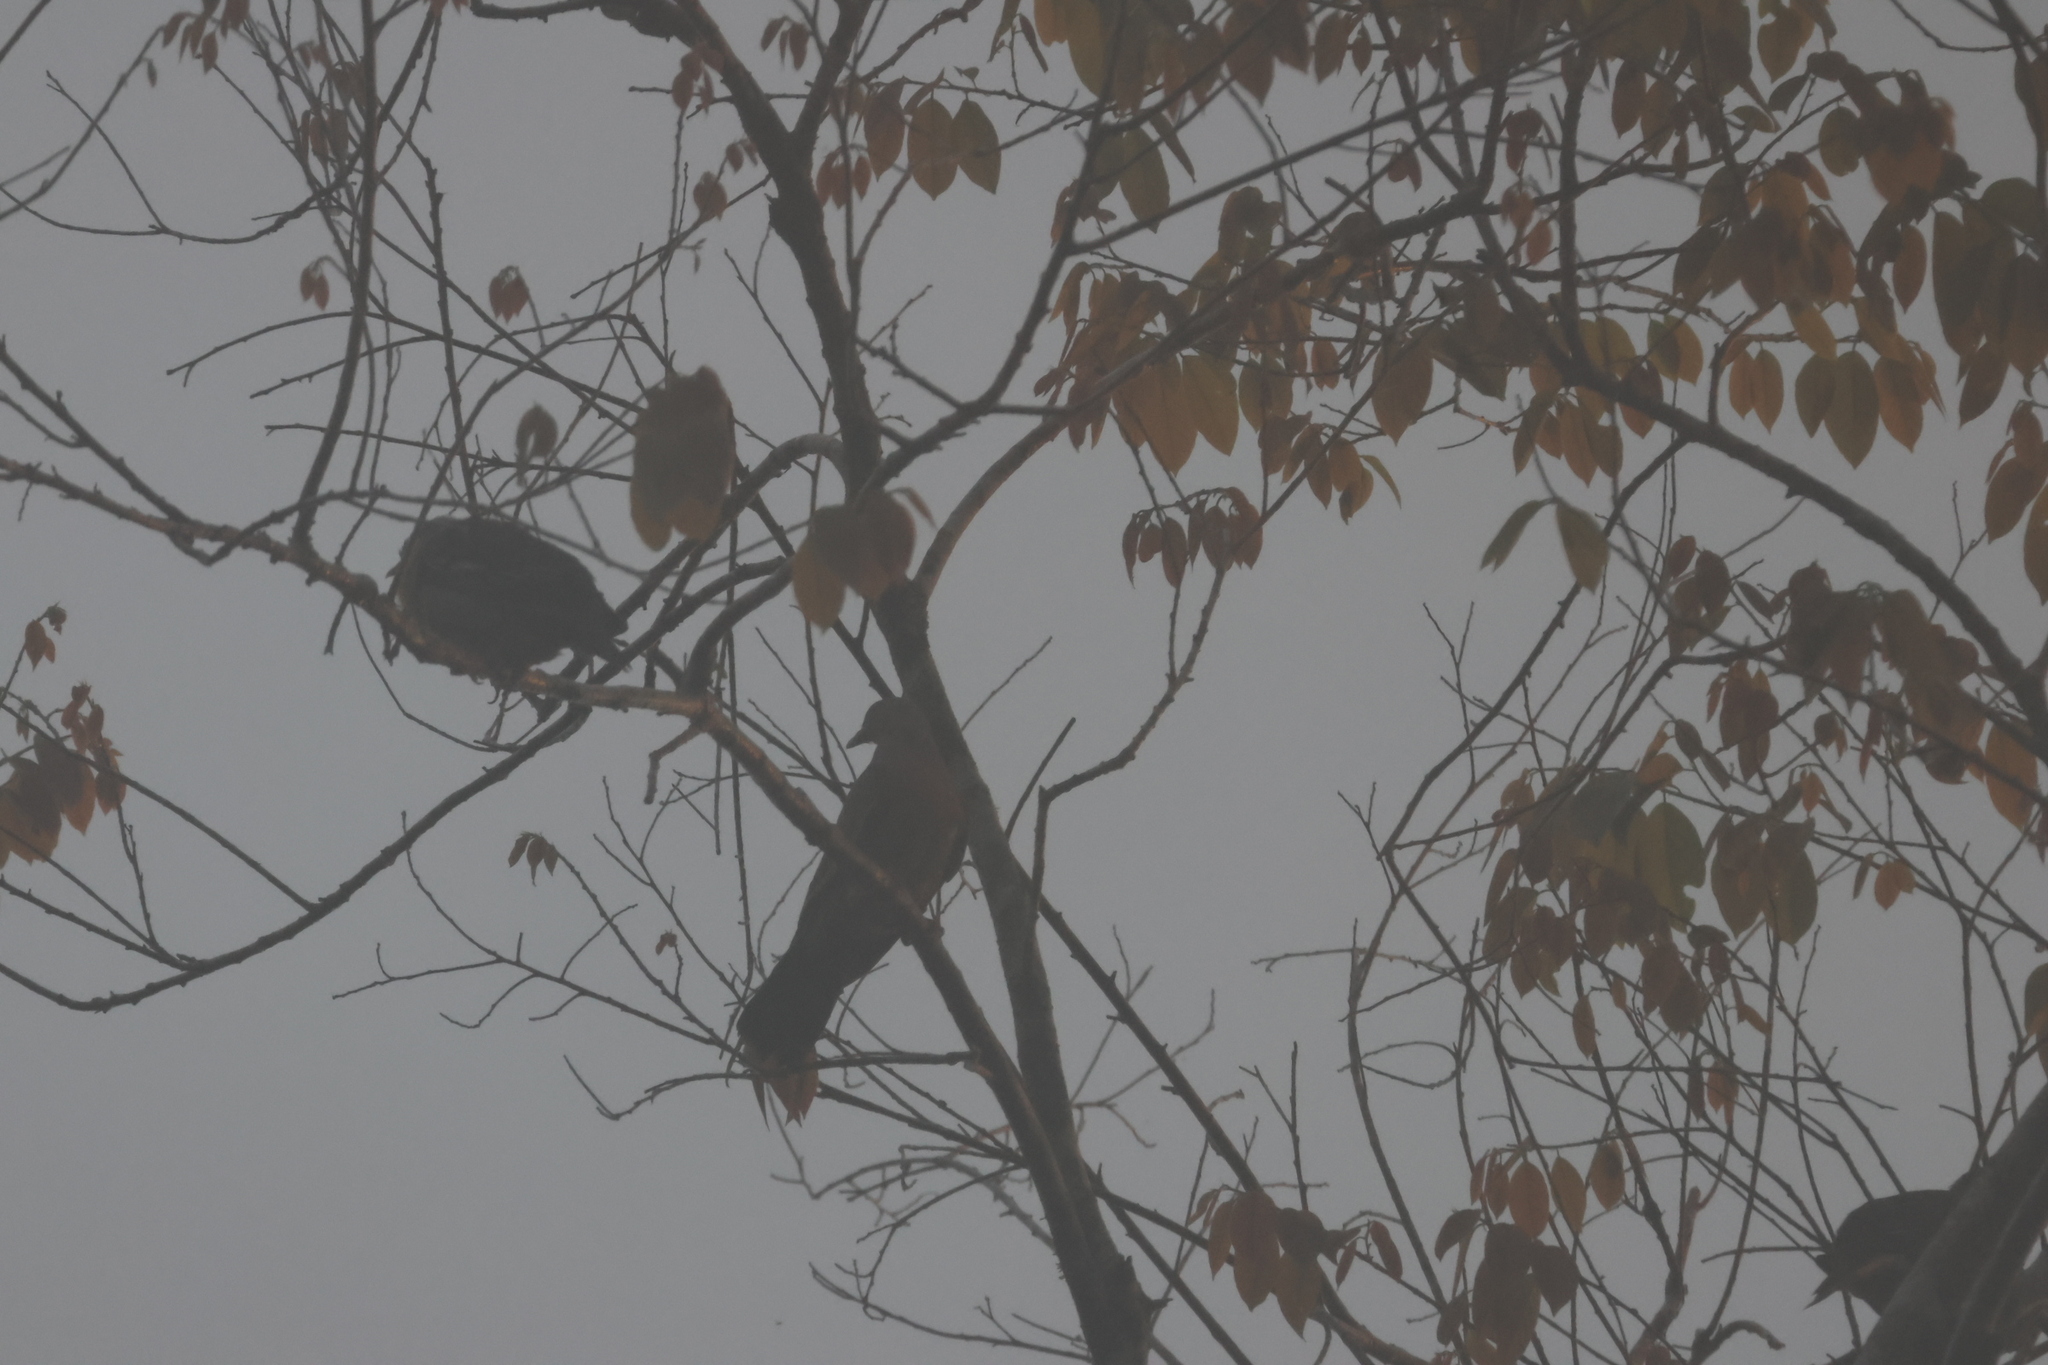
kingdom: Animalia
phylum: Chordata
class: Aves
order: Columbiformes
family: Columbidae
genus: Treron
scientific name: Treron vernans
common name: Pink-necked green pigeon
